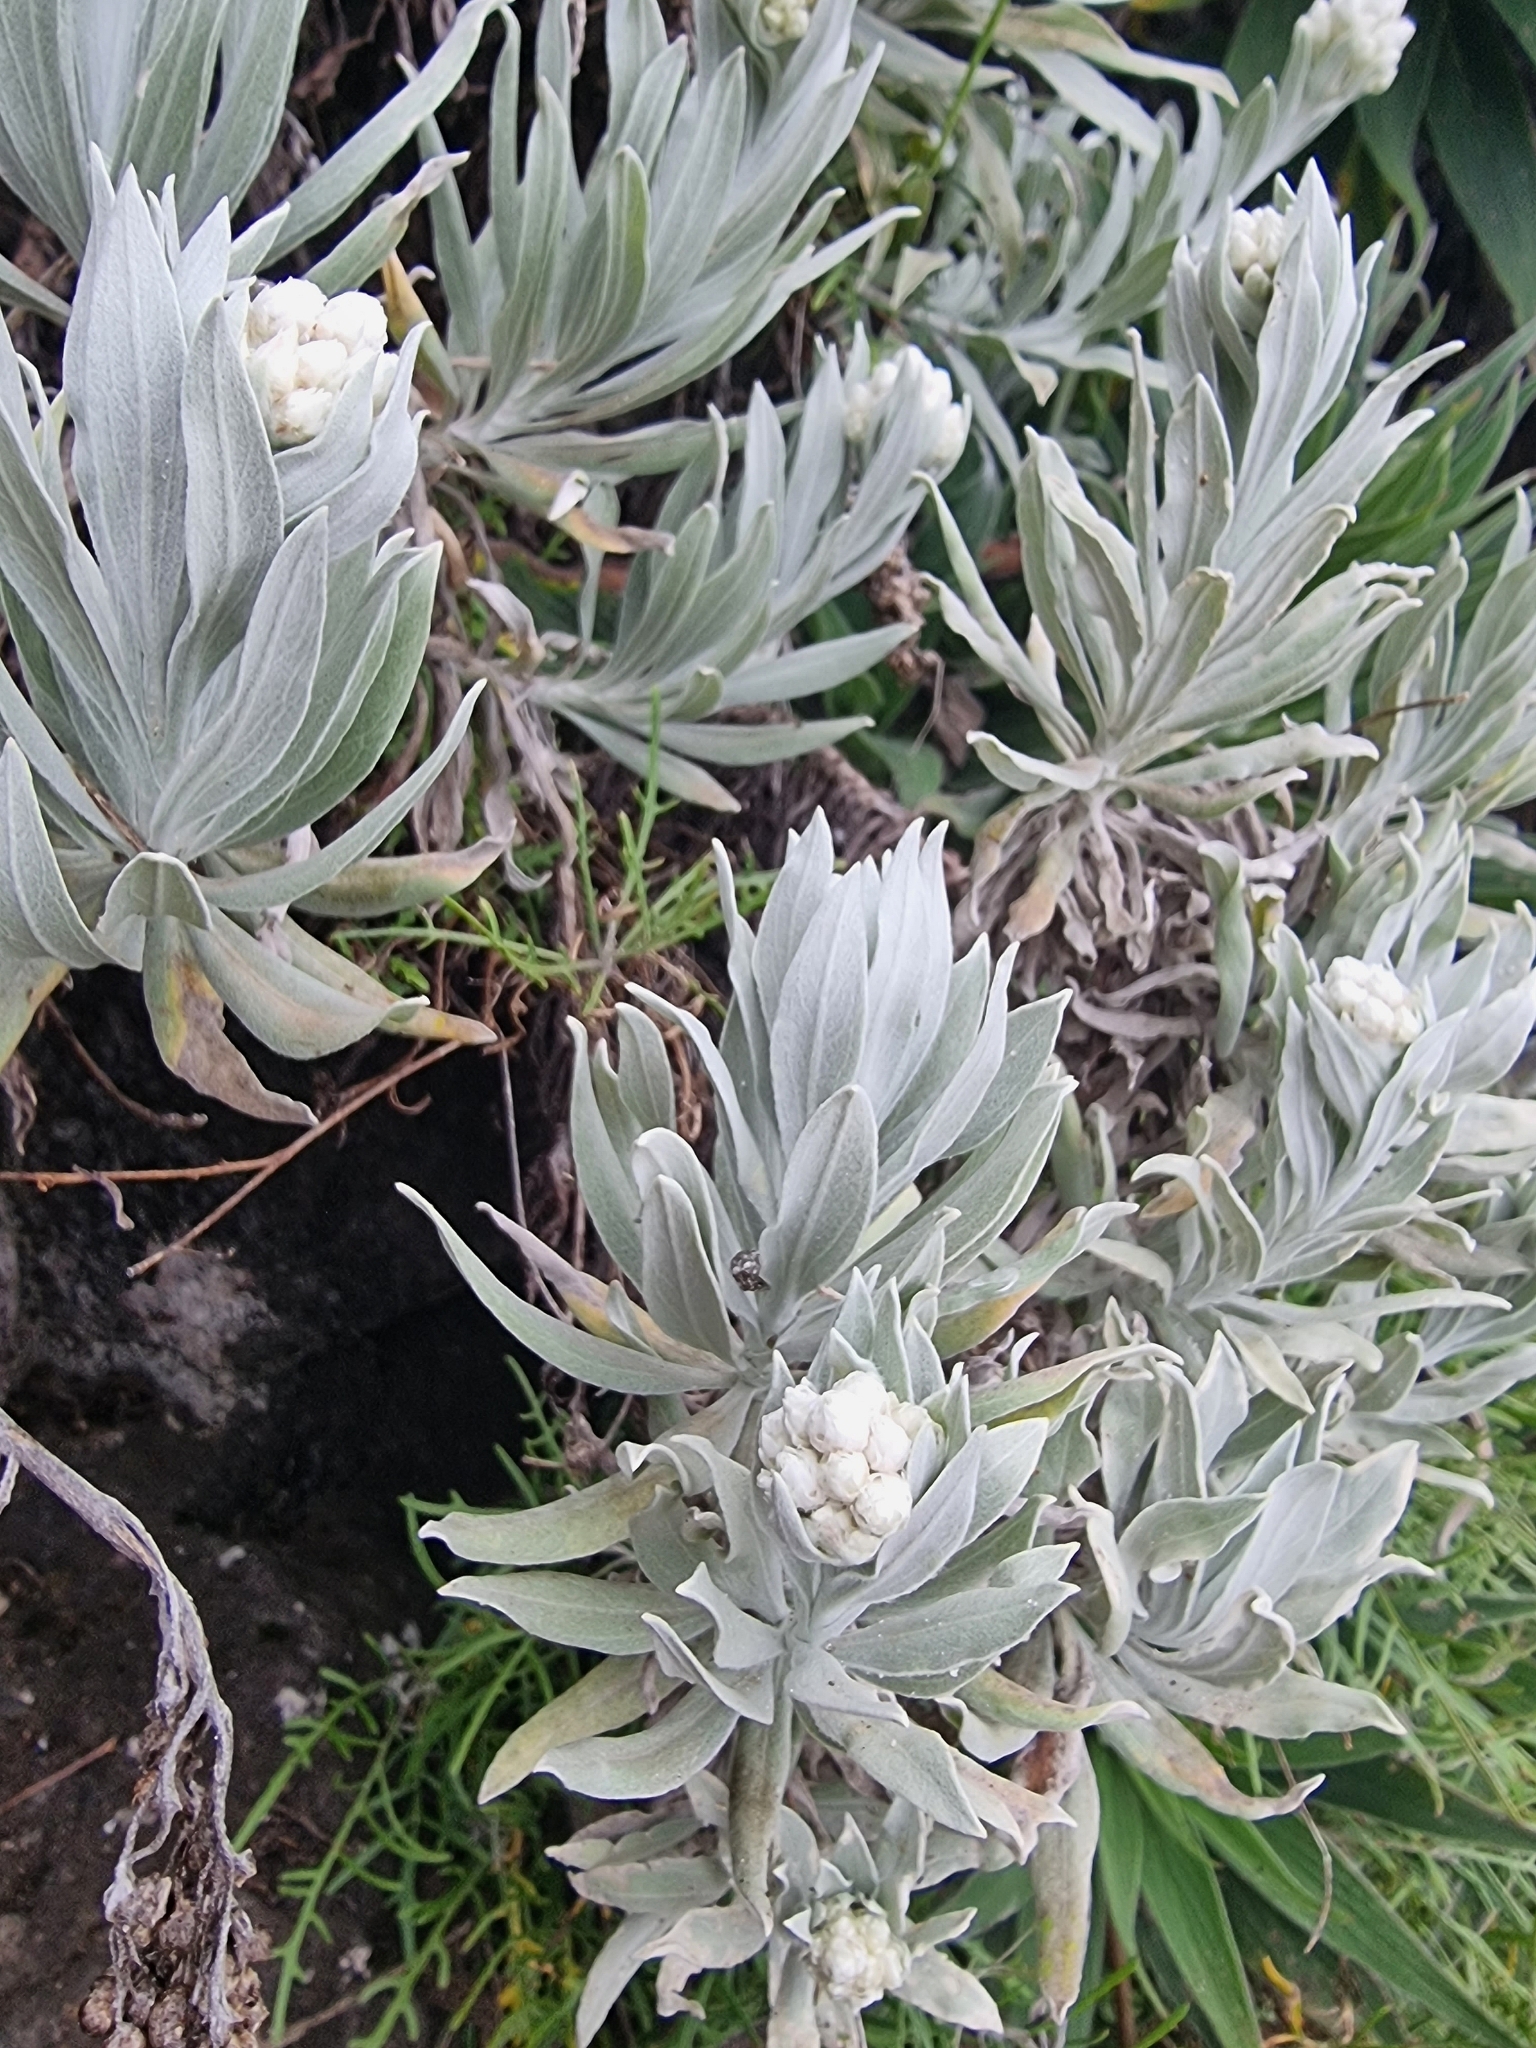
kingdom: Plantae
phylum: Tracheophyta
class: Magnoliopsida
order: Asterales
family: Asteraceae
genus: Helichrysum
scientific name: Helichrysum melaleucum
